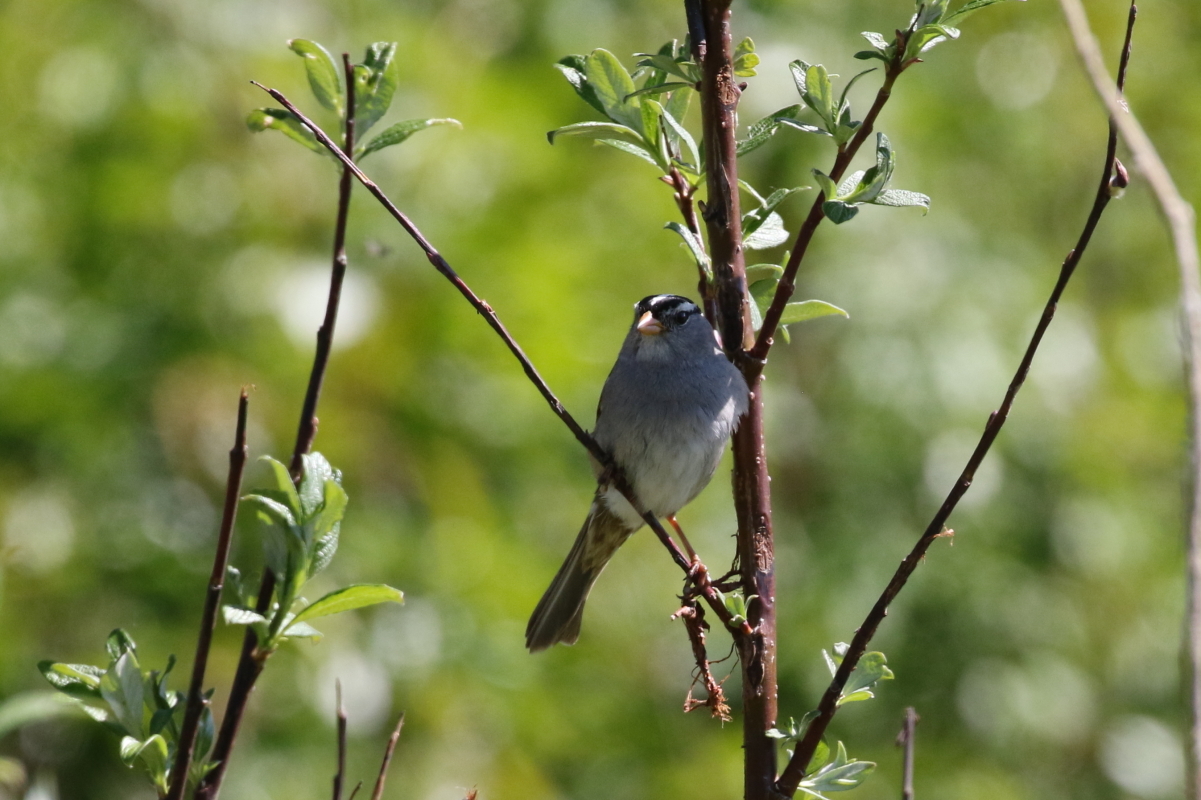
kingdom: Animalia
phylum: Chordata
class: Aves
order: Passeriformes
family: Passerellidae
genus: Zonotrichia
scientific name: Zonotrichia leucophrys
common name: White-crowned sparrow
